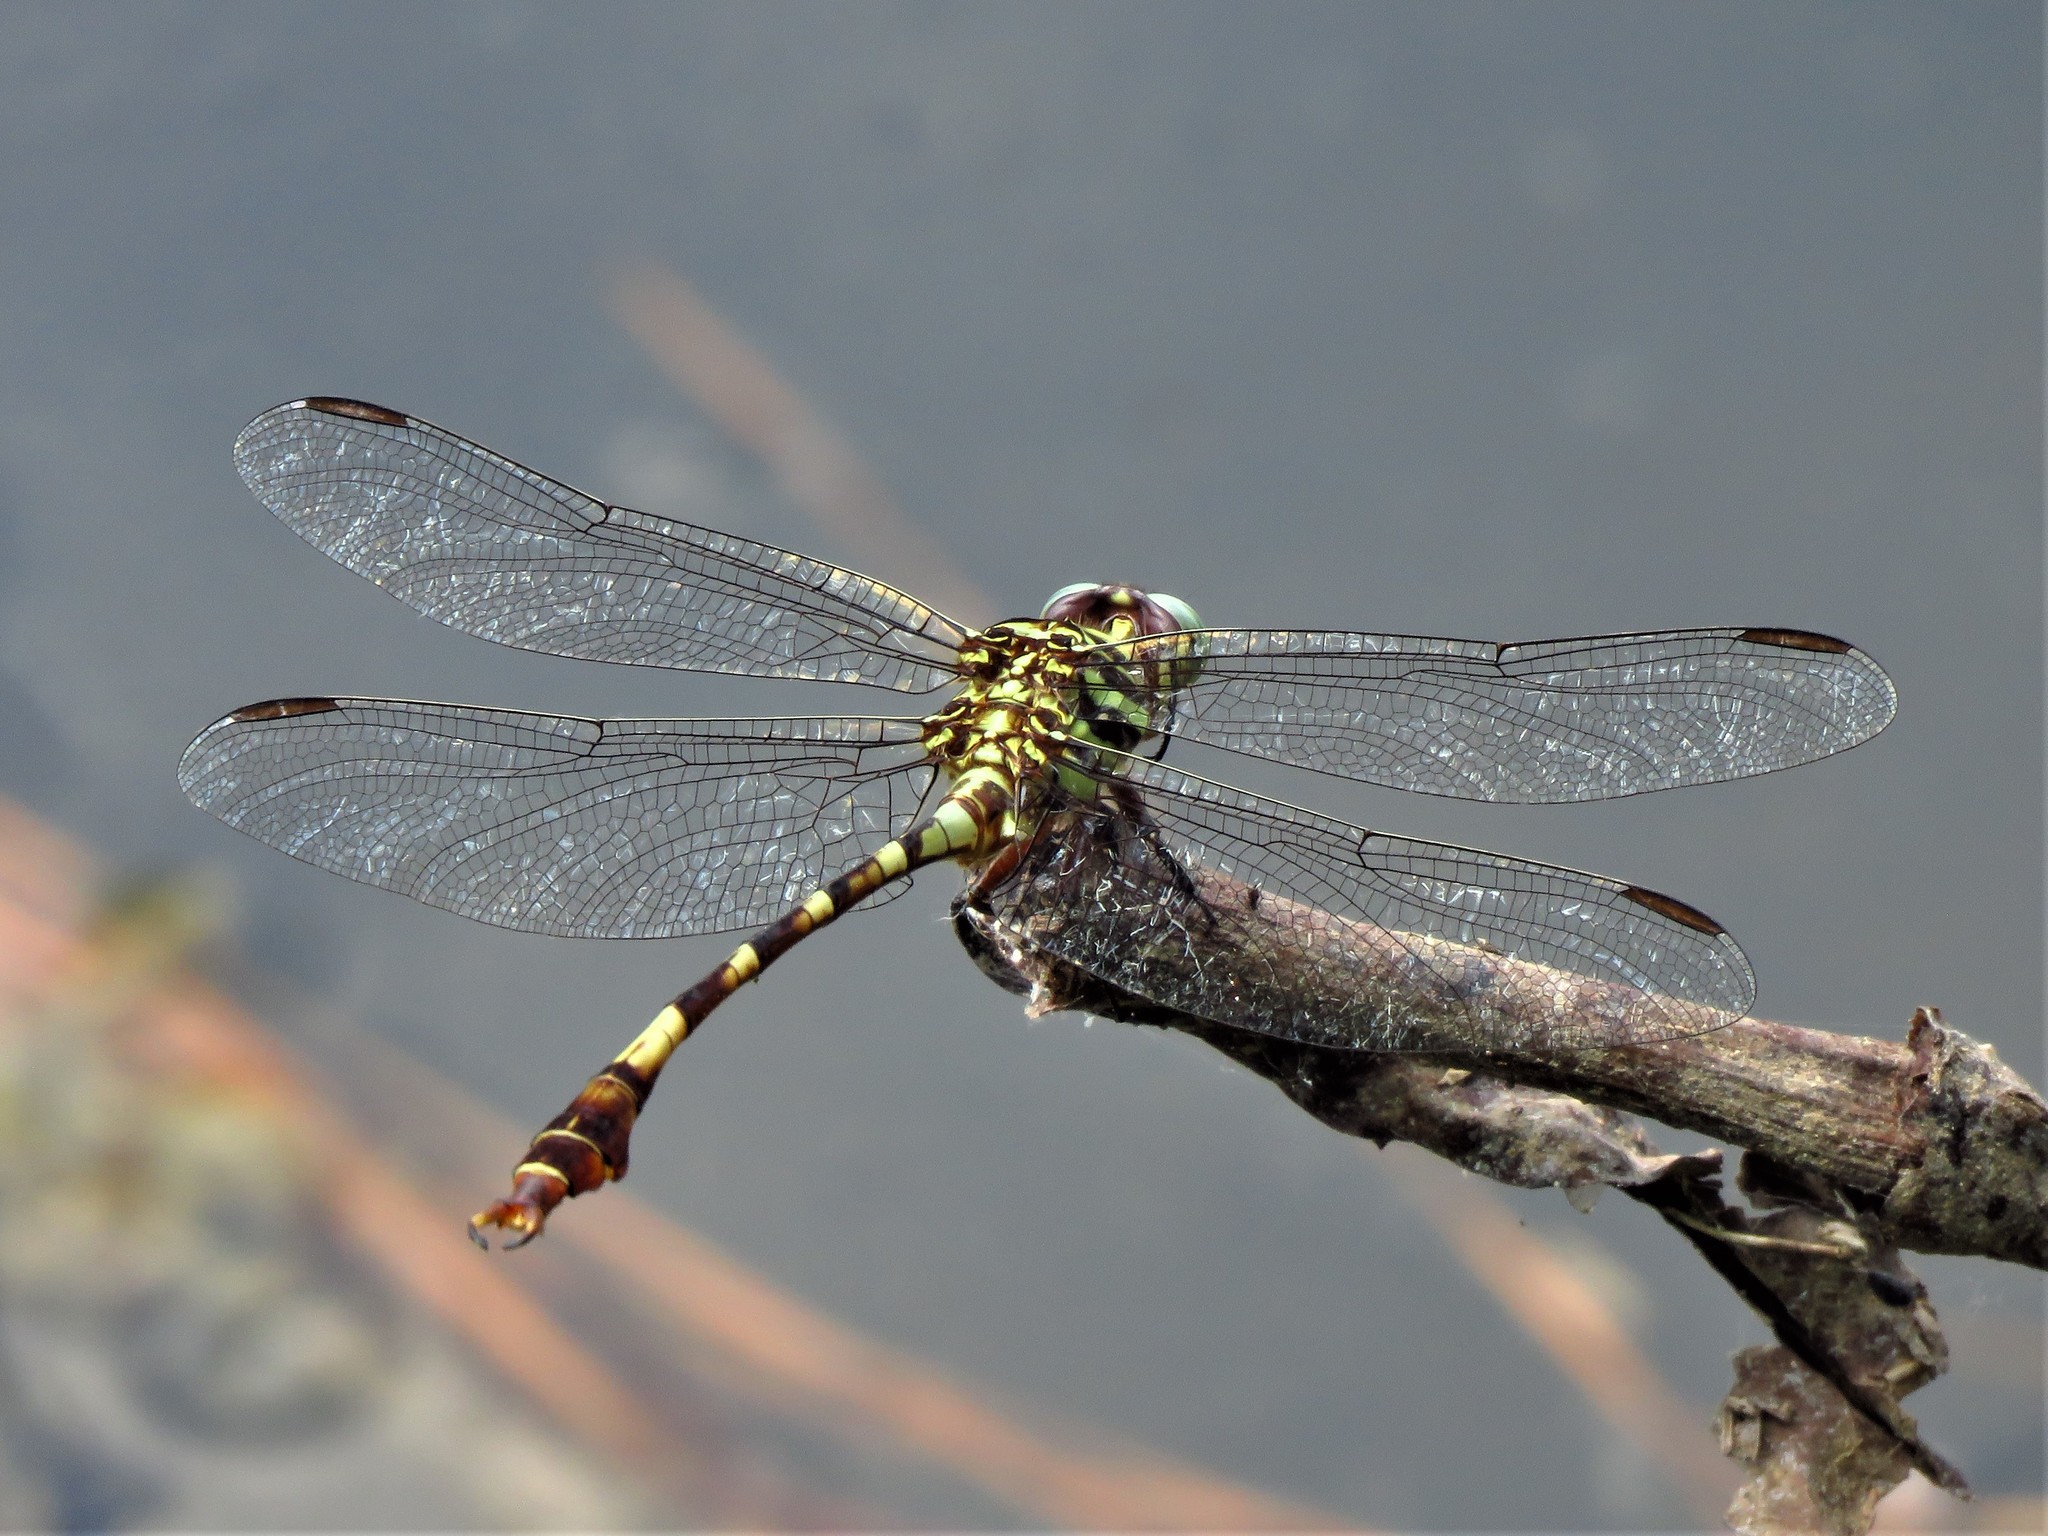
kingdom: Animalia
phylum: Arthropoda
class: Insecta
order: Odonata
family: Gomphidae
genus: Aphylla
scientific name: Aphylla angustifolia
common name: Broad-striped forceptail
